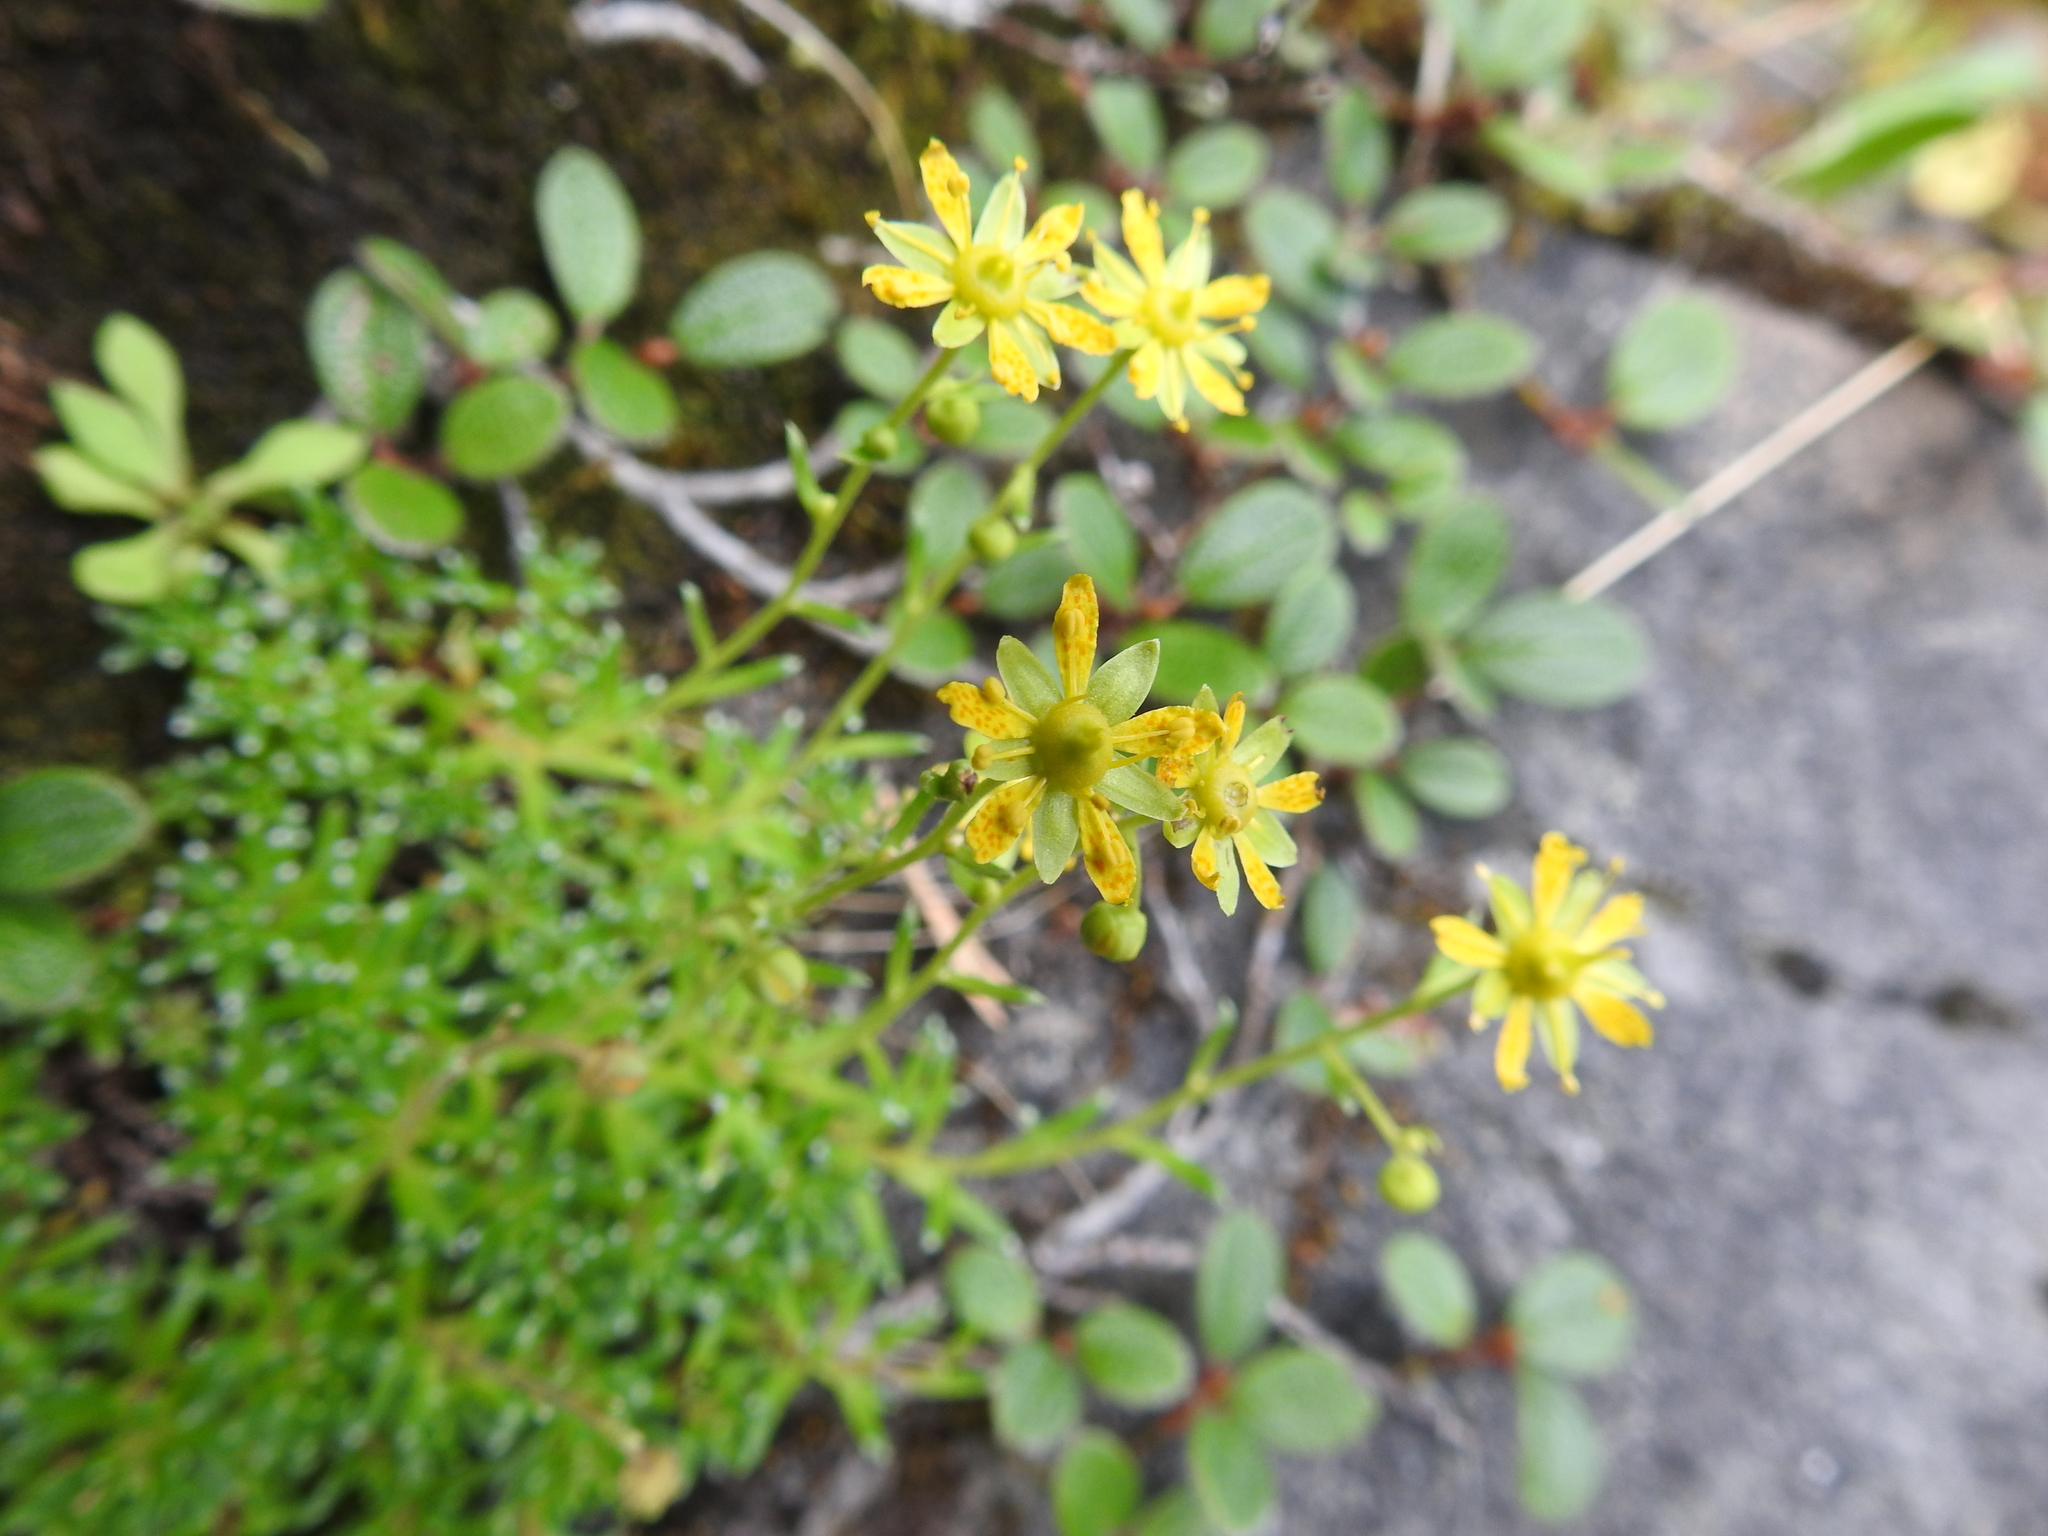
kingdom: Plantae
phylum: Tracheophyta
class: Magnoliopsida
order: Saxifragales
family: Saxifragaceae
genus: Saxifraga
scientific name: Saxifraga aizoides
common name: Yellow mountain saxifrage
